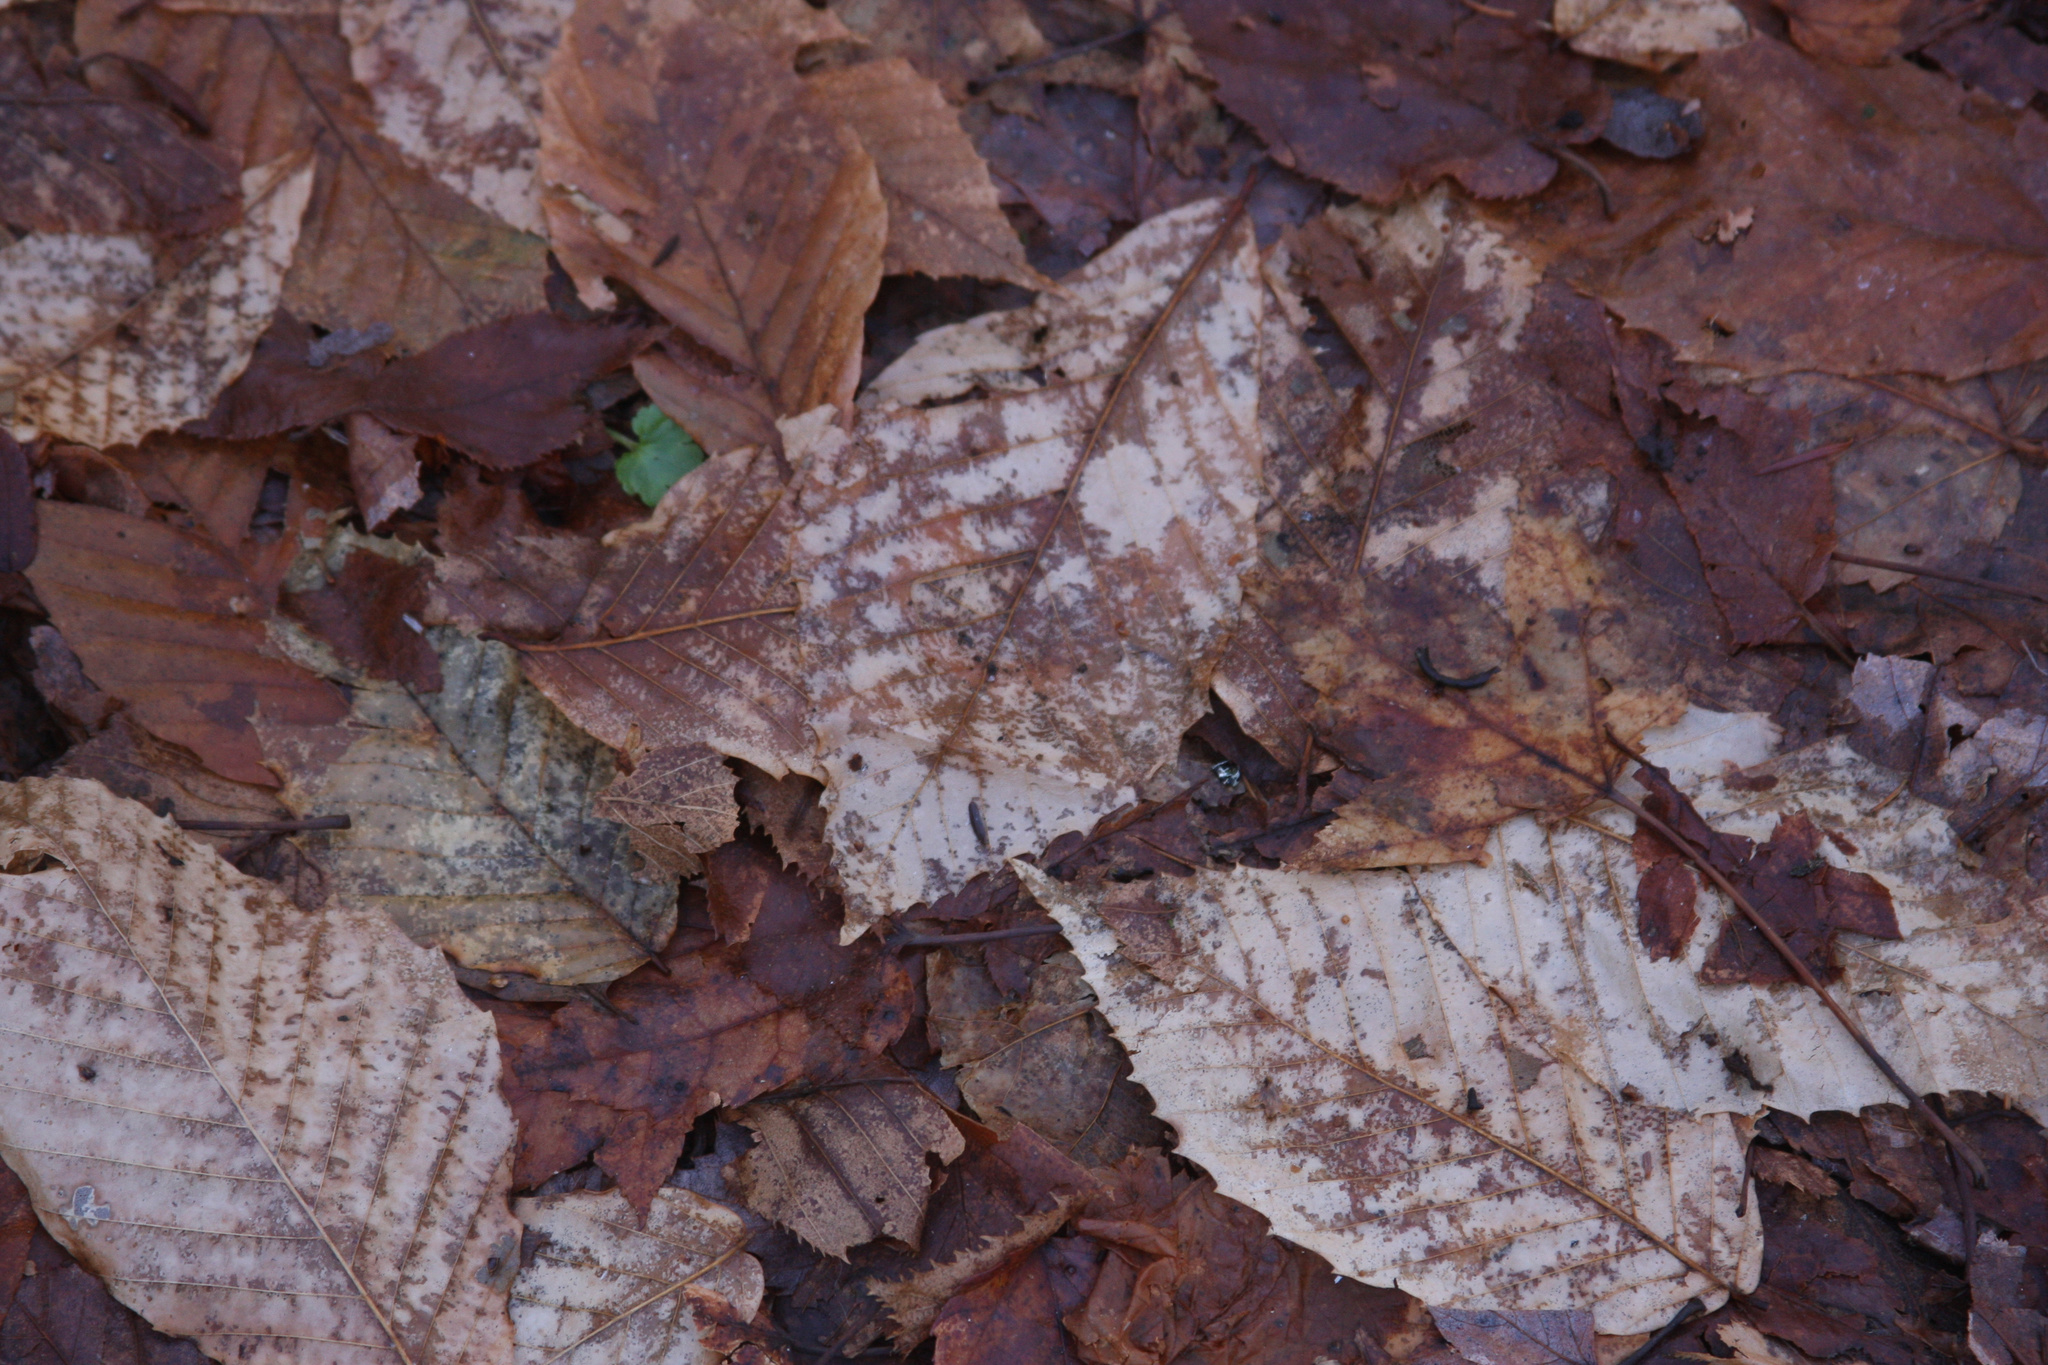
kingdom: Plantae
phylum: Tracheophyta
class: Magnoliopsida
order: Fagales
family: Fagaceae
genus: Fagus
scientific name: Fagus grandifolia
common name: American beech
